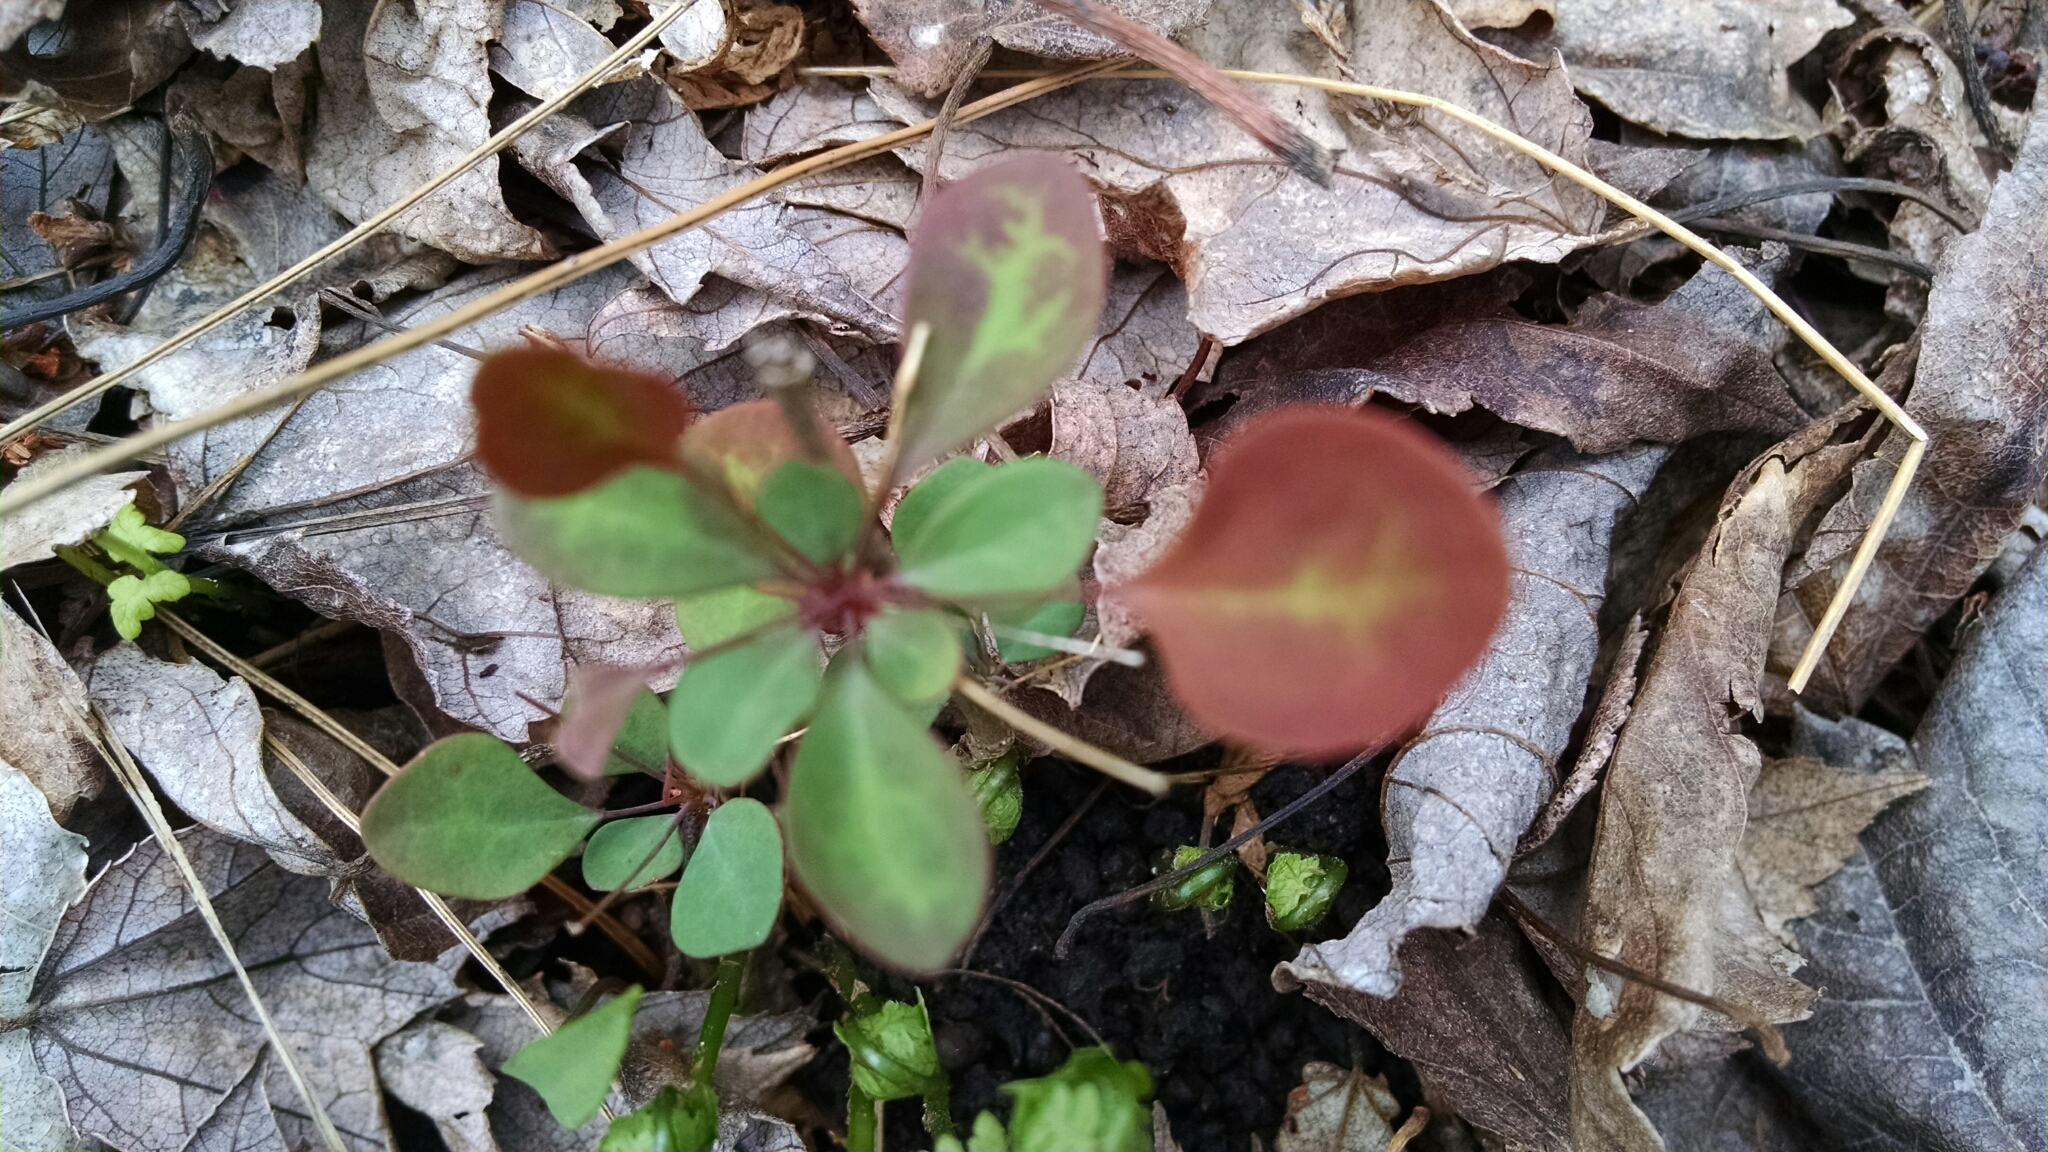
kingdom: Plantae
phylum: Tracheophyta
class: Magnoliopsida
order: Ranunculales
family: Berberidaceae
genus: Berberis
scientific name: Berberis thunbergii
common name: Japanese barberry
